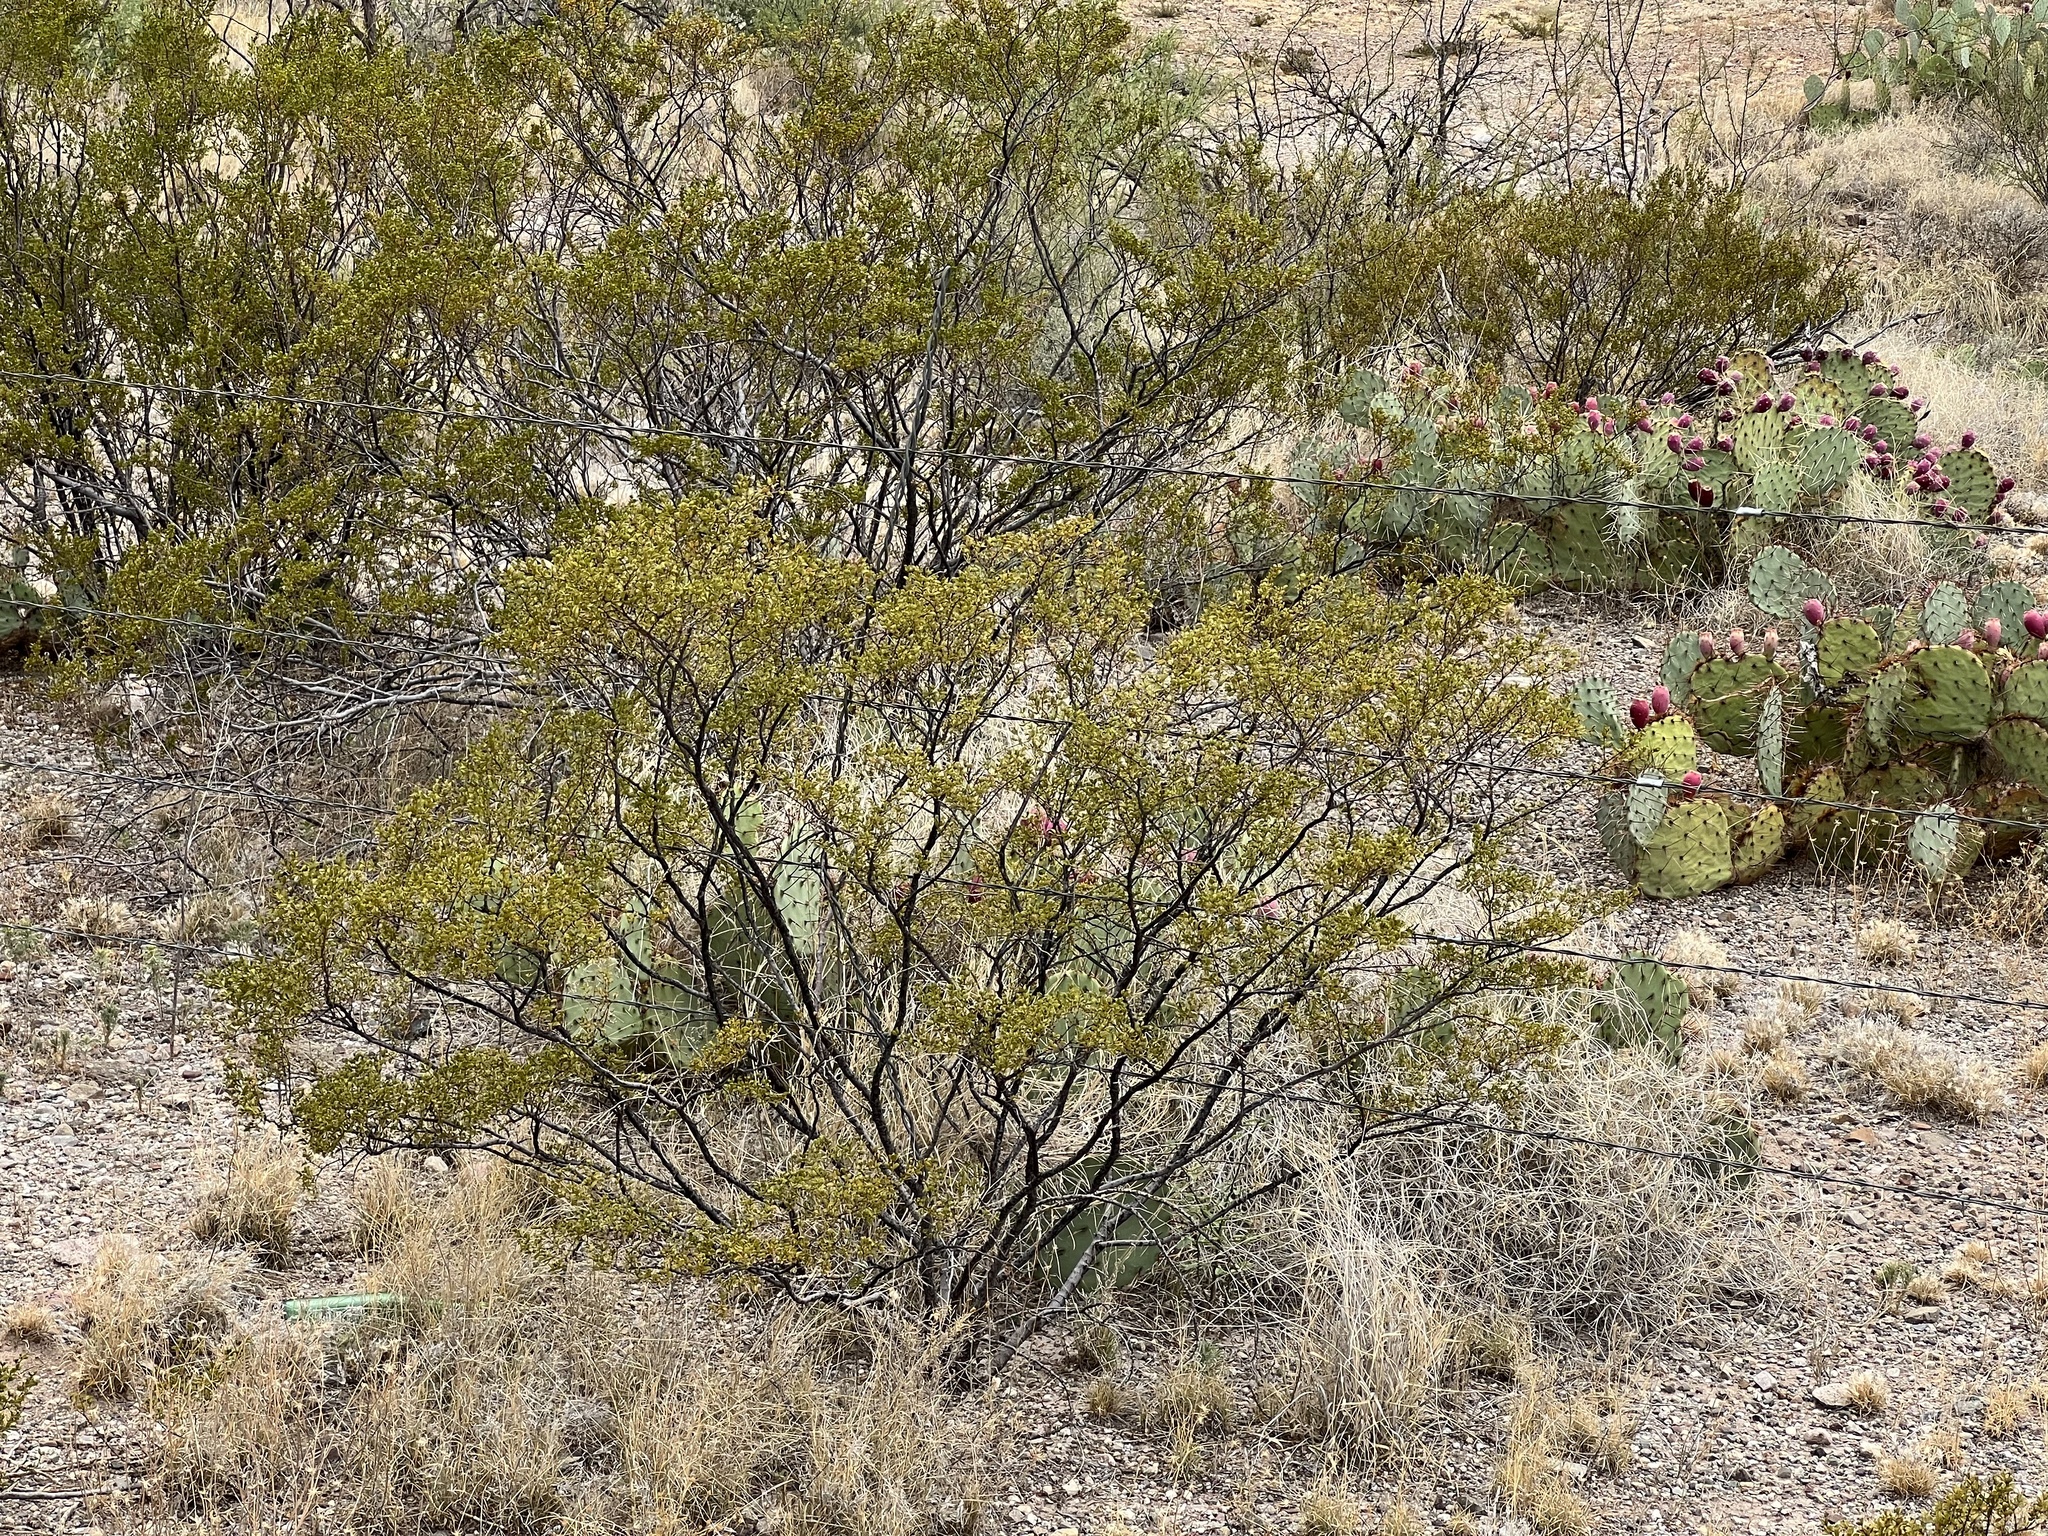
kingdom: Plantae
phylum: Tracheophyta
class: Magnoliopsida
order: Zygophyllales
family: Zygophyllaceae
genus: Larrea
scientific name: Larrea tridentata
